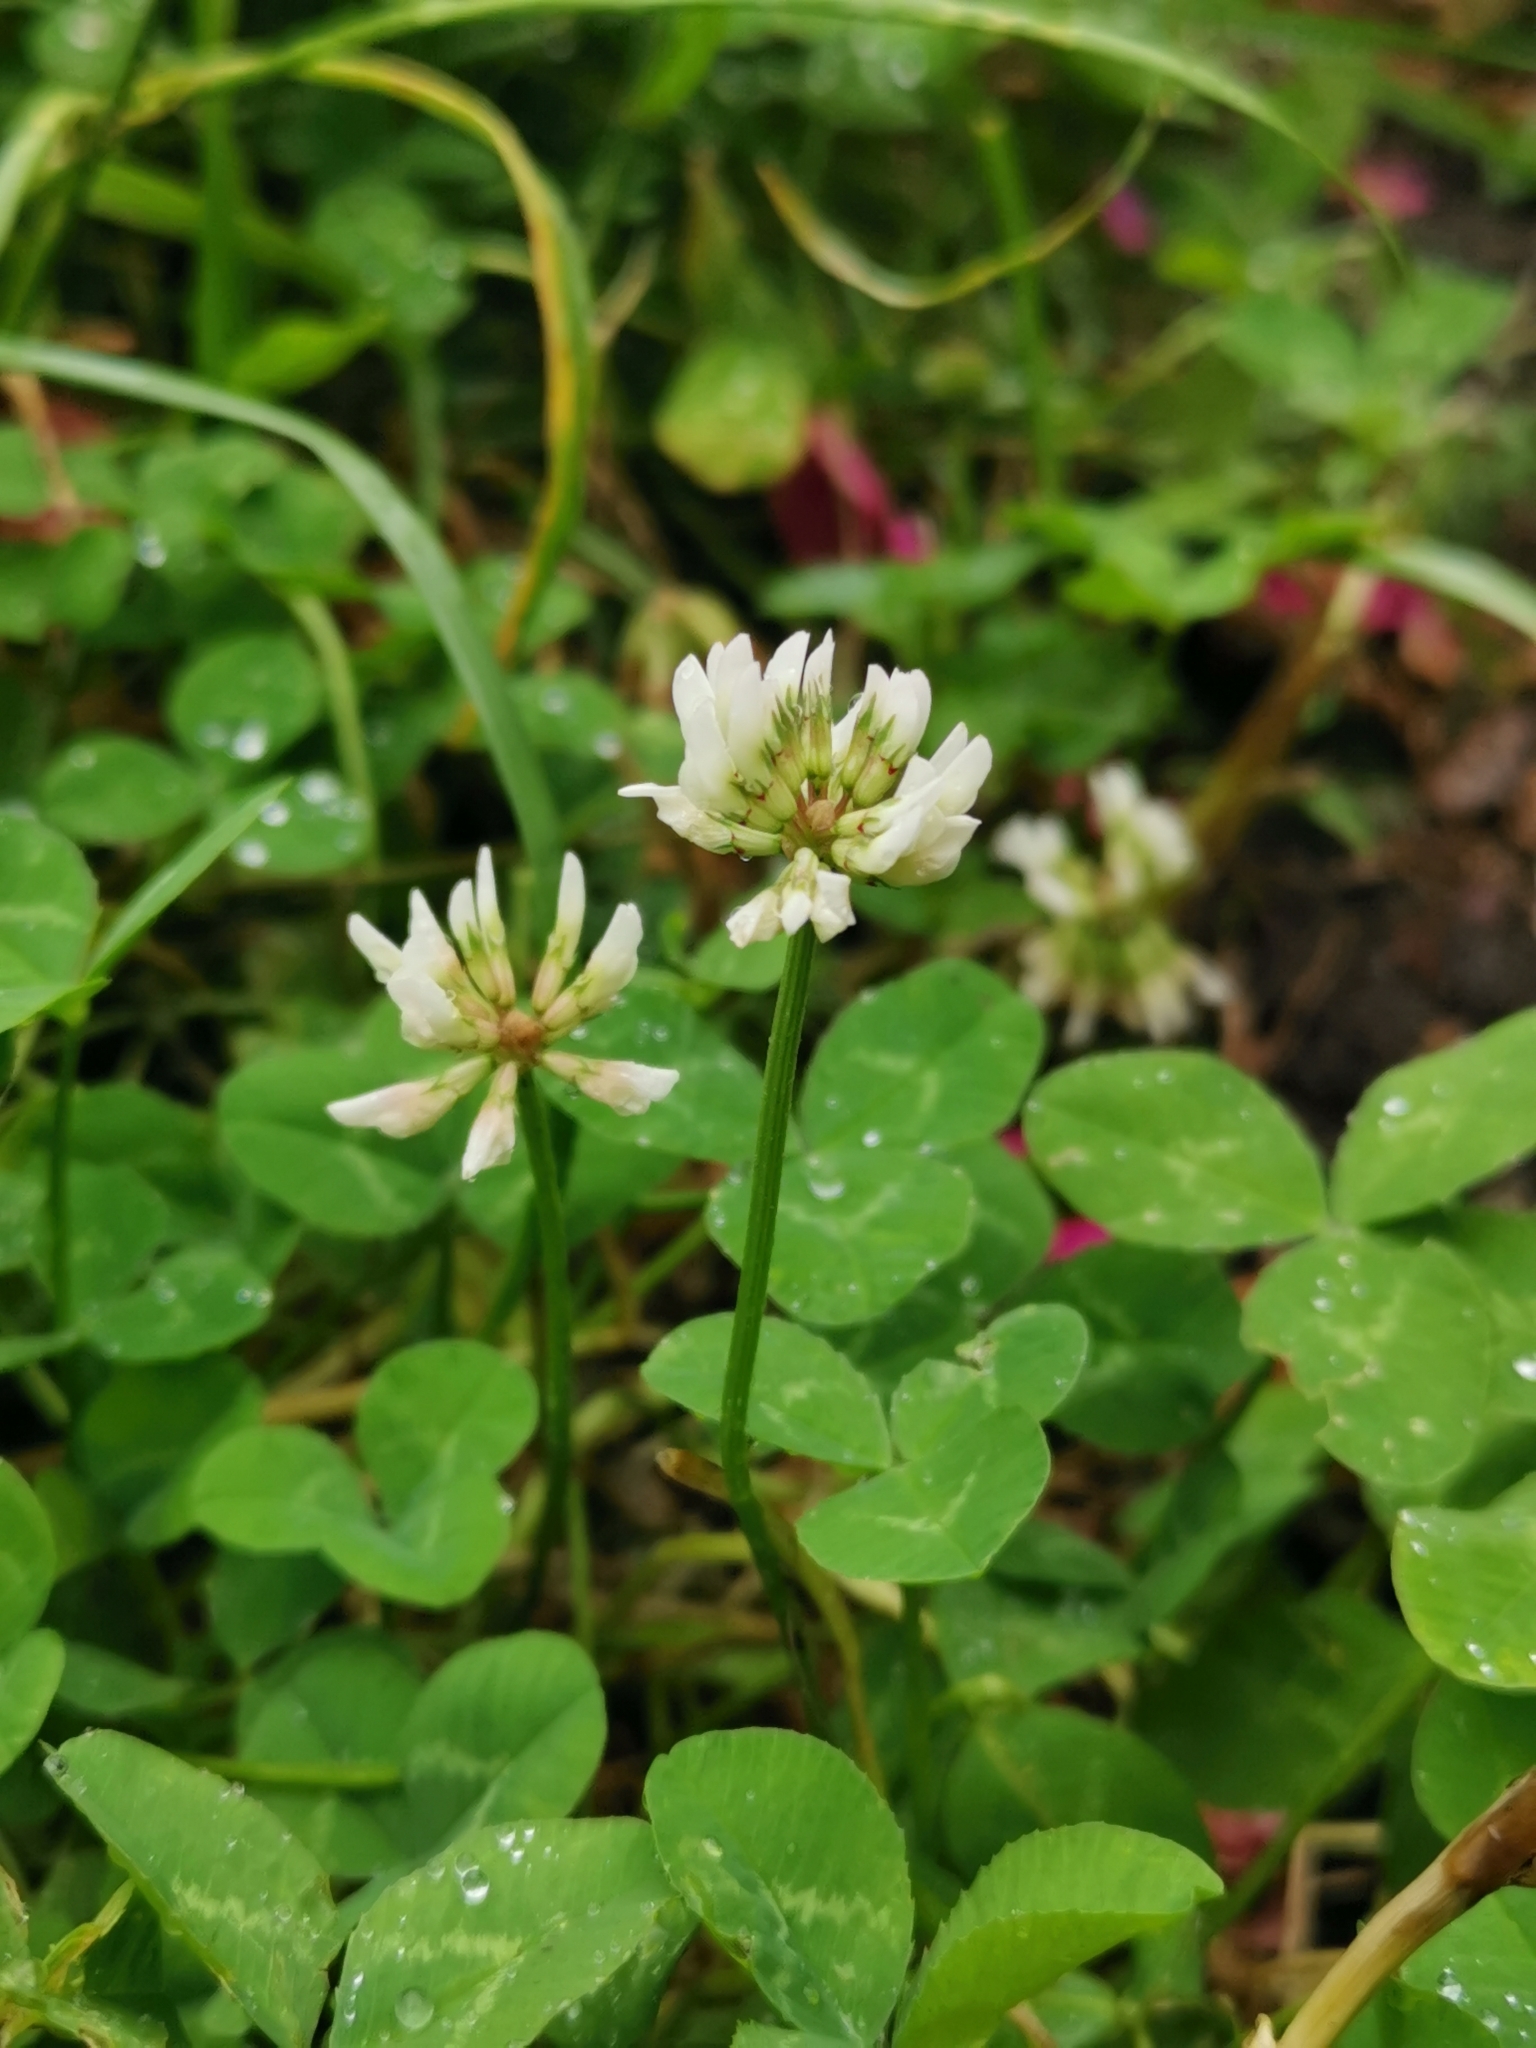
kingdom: Plantae
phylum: Tracheophyta
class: Magnoliopsida
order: Fabales
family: Fabaceae
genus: Trifolium
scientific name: Trifolium repens
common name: White clover
